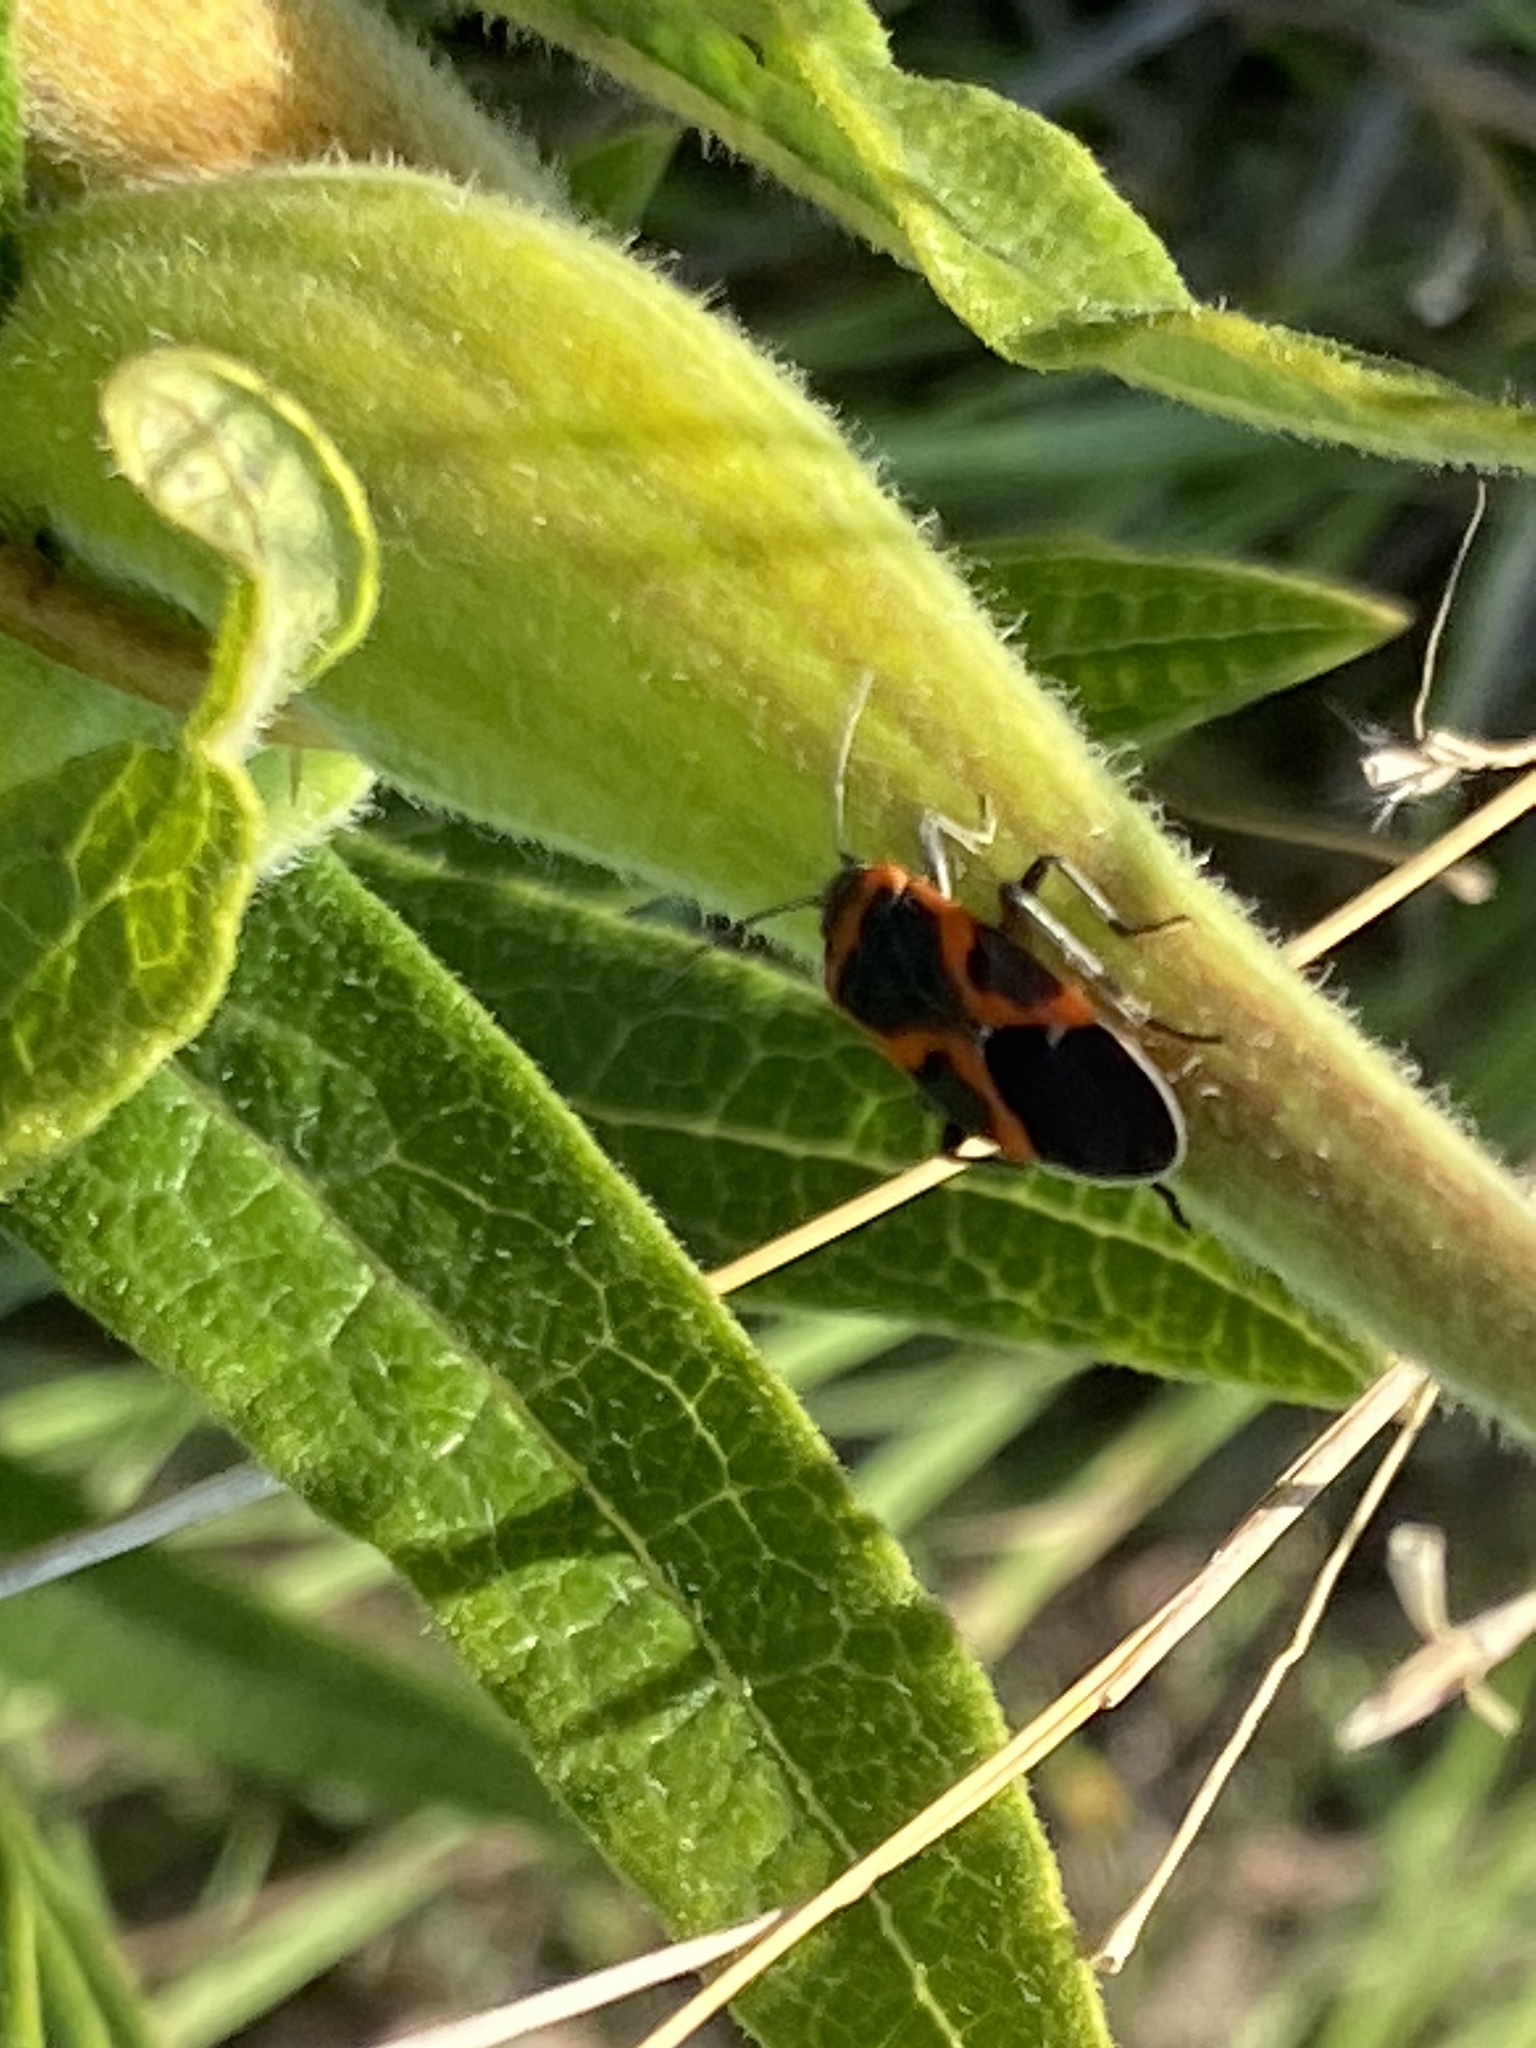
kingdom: Animalia
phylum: Arthropoda
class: Insecta
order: Hemiptera
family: Lygaeidae
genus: Lygaeus
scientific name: Lygaeus kalmii
